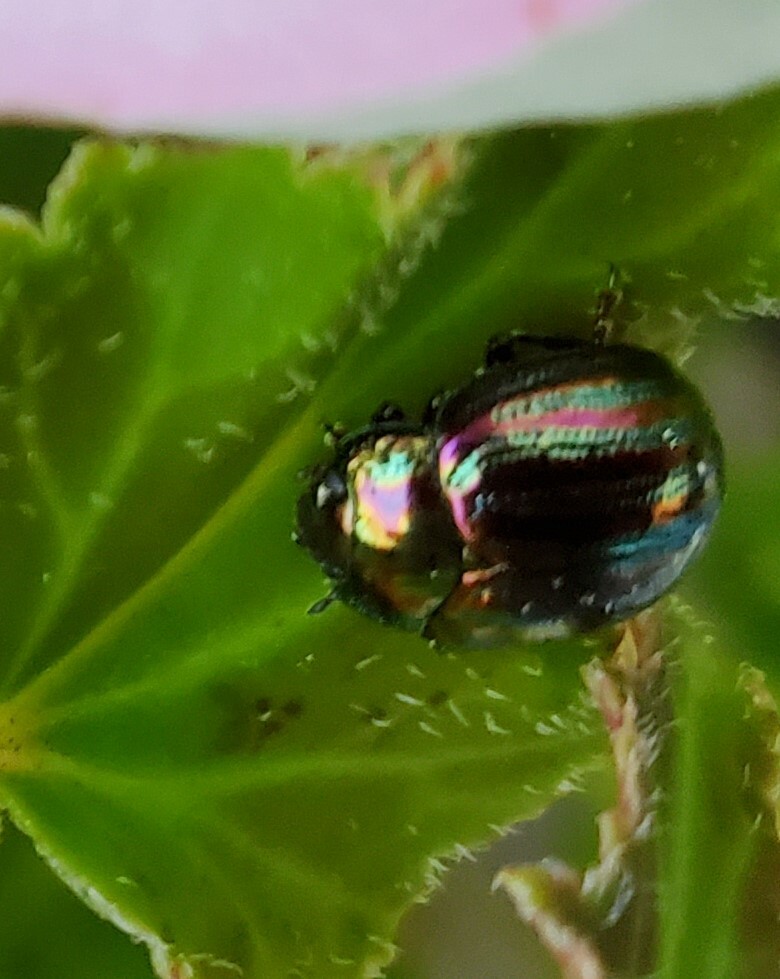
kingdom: Animalia
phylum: Arthropoda
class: Insecta
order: Coleoptera
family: Chrysomelidae
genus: Chrysolina
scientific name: Chrysolina americana
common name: Rosemary beetle
